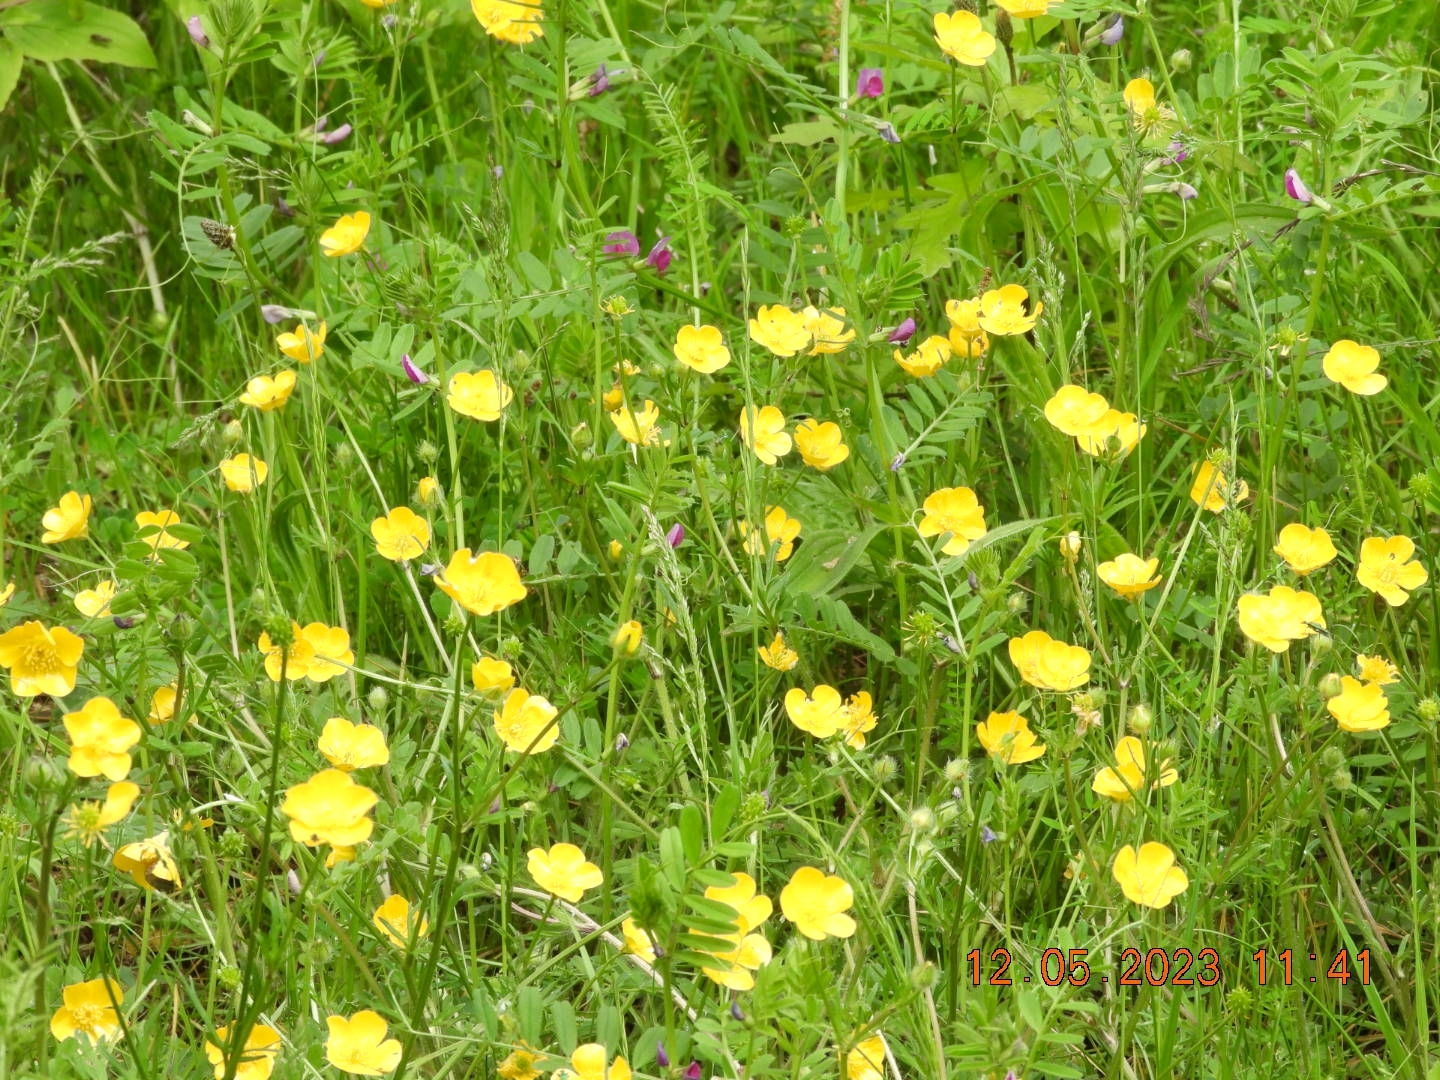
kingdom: Plantae
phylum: Tracheophyta
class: Magnoliopsida
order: Ranunculales
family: Ranunculaceae
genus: Ranunculus
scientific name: Ranunculus bulbosus
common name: Bulbous buttercup
